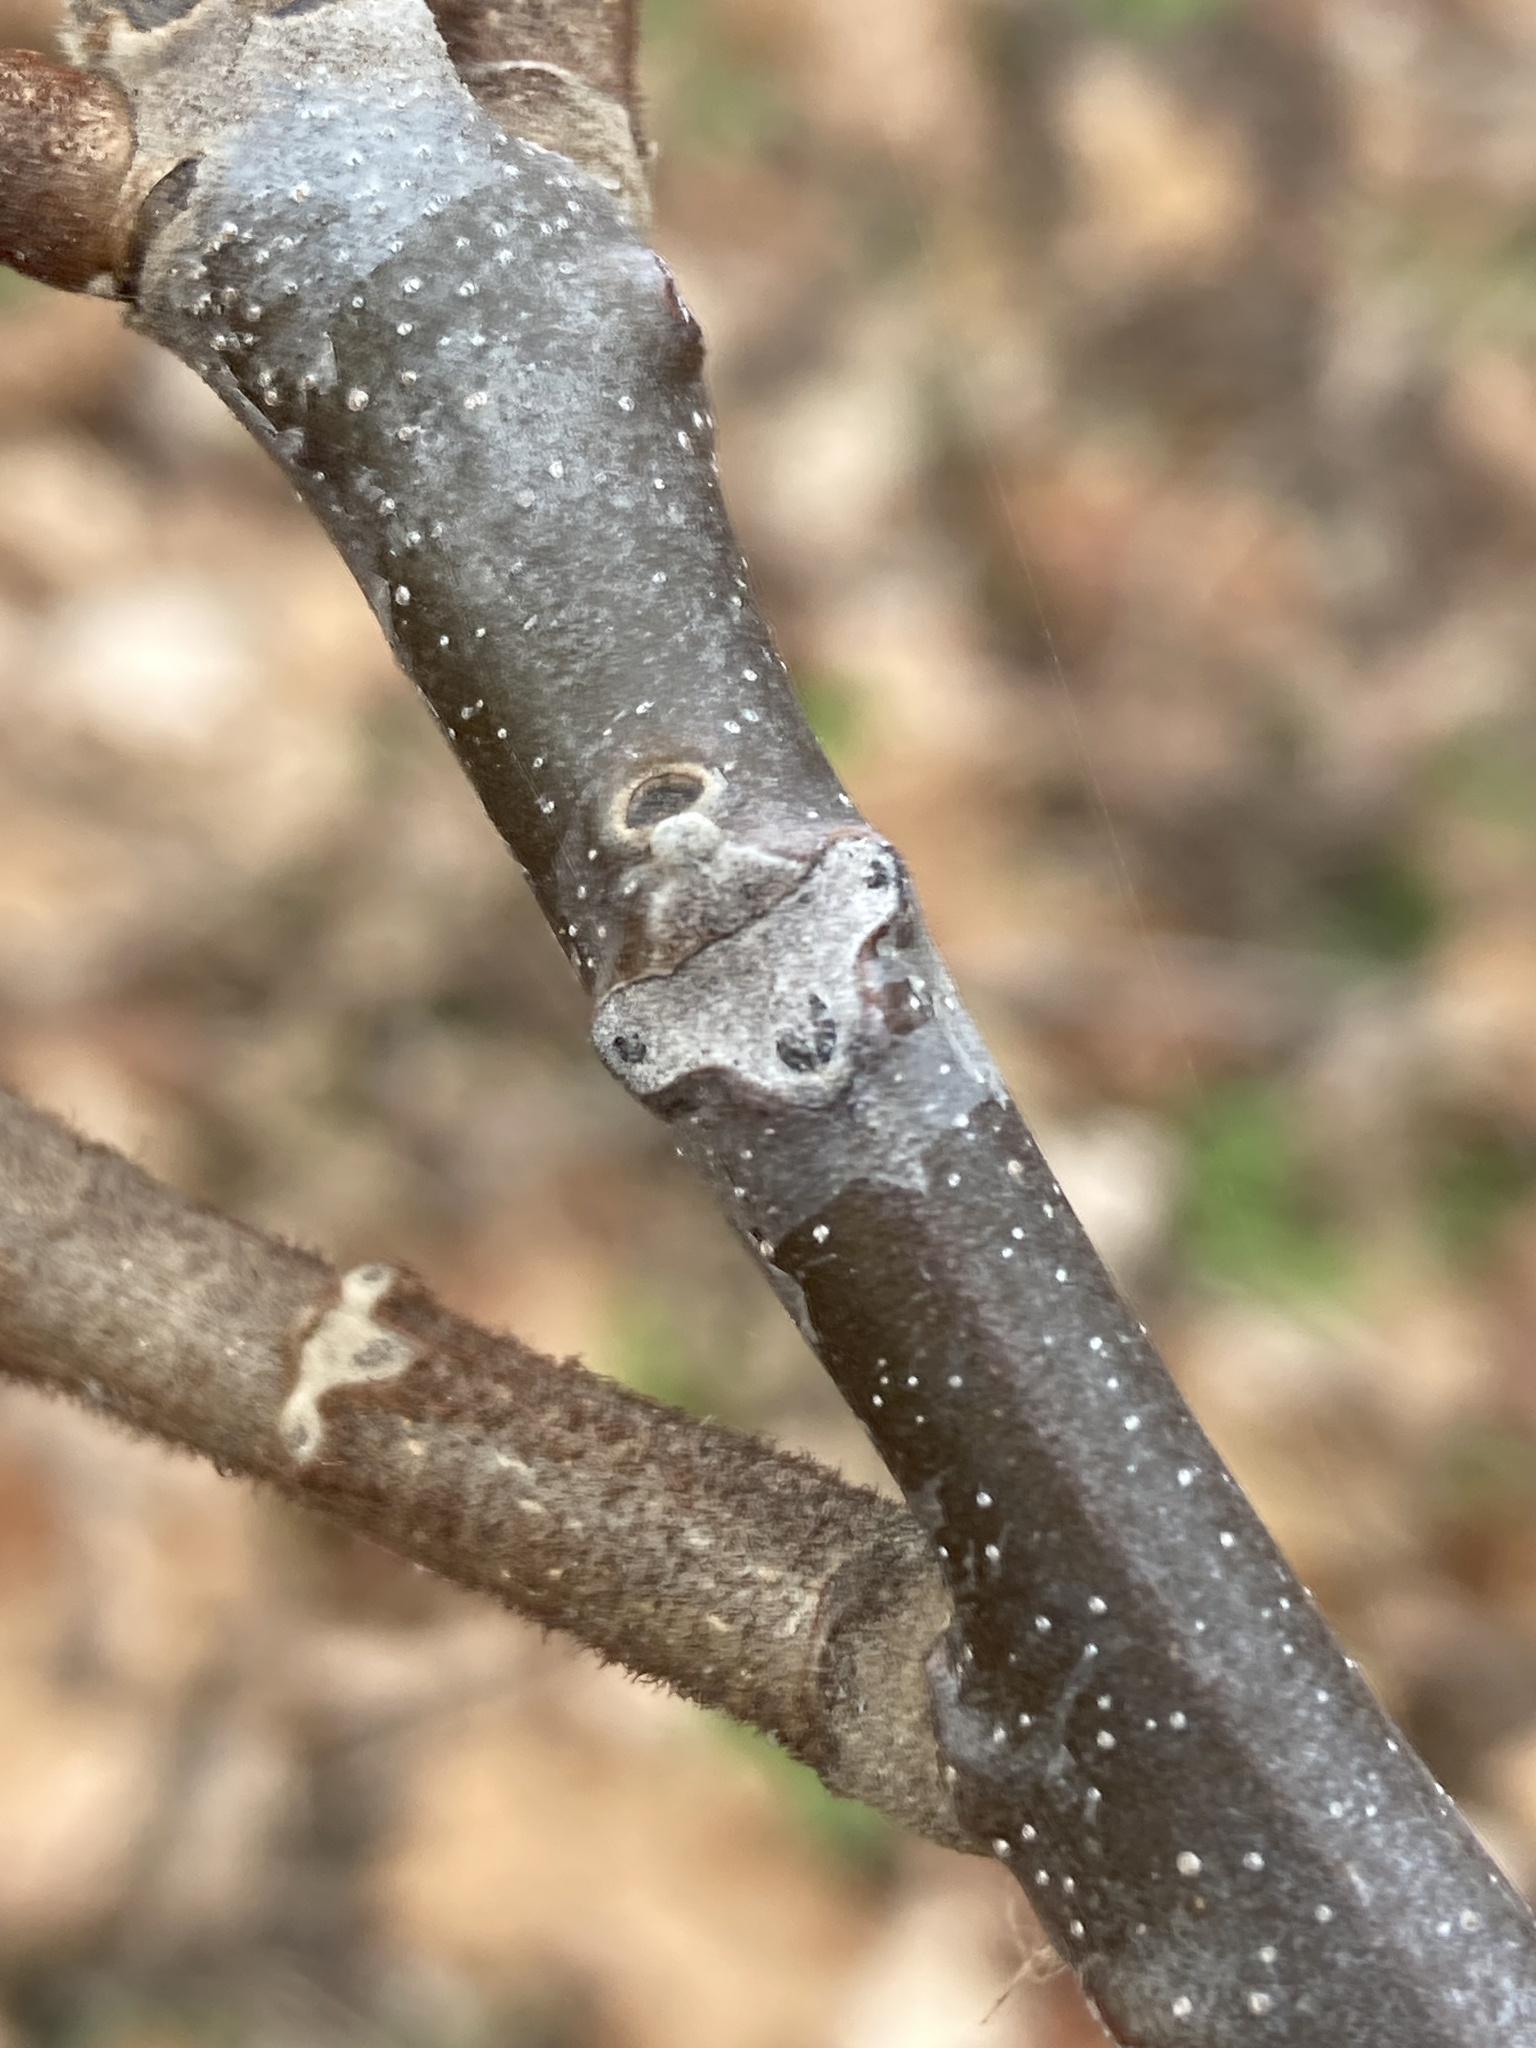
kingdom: Plantae
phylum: Tracheophyta
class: Magnoliopsida
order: Fagales
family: Juglandaceae
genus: Juglans
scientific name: Juglans cinerea
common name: Butternut
